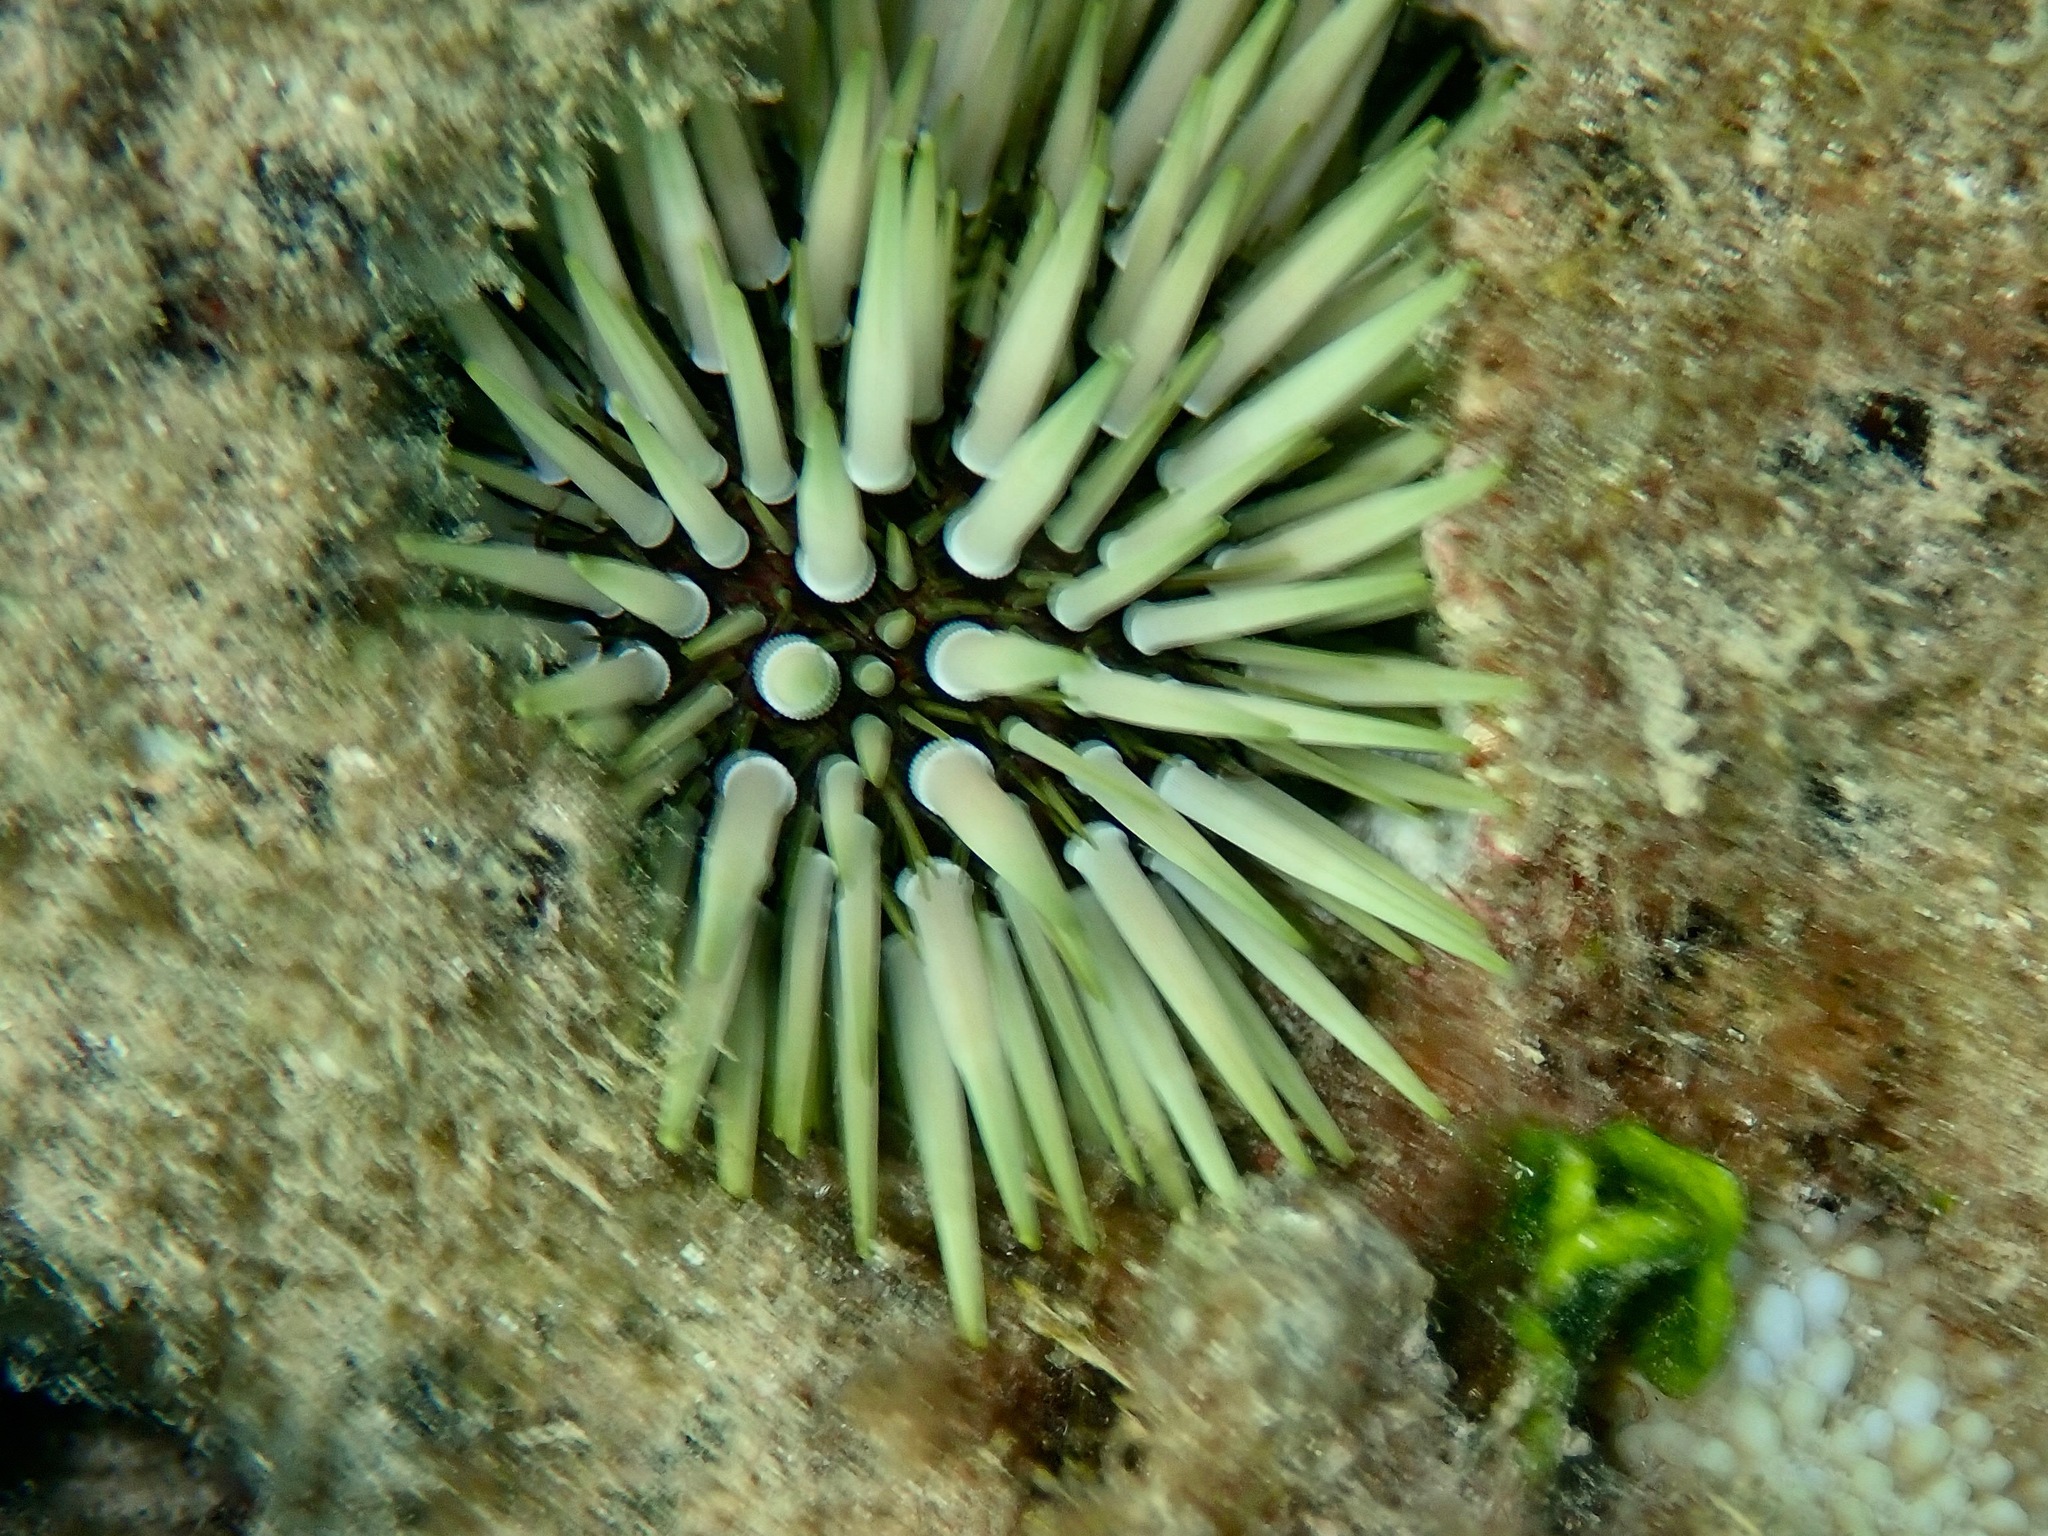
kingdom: Animalia
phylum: Echinodermata
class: Echinoidea
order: Camarodonta
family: Echinometridae
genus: Echinometra
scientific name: Echinometra mathaei
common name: Rock-boring urchin
